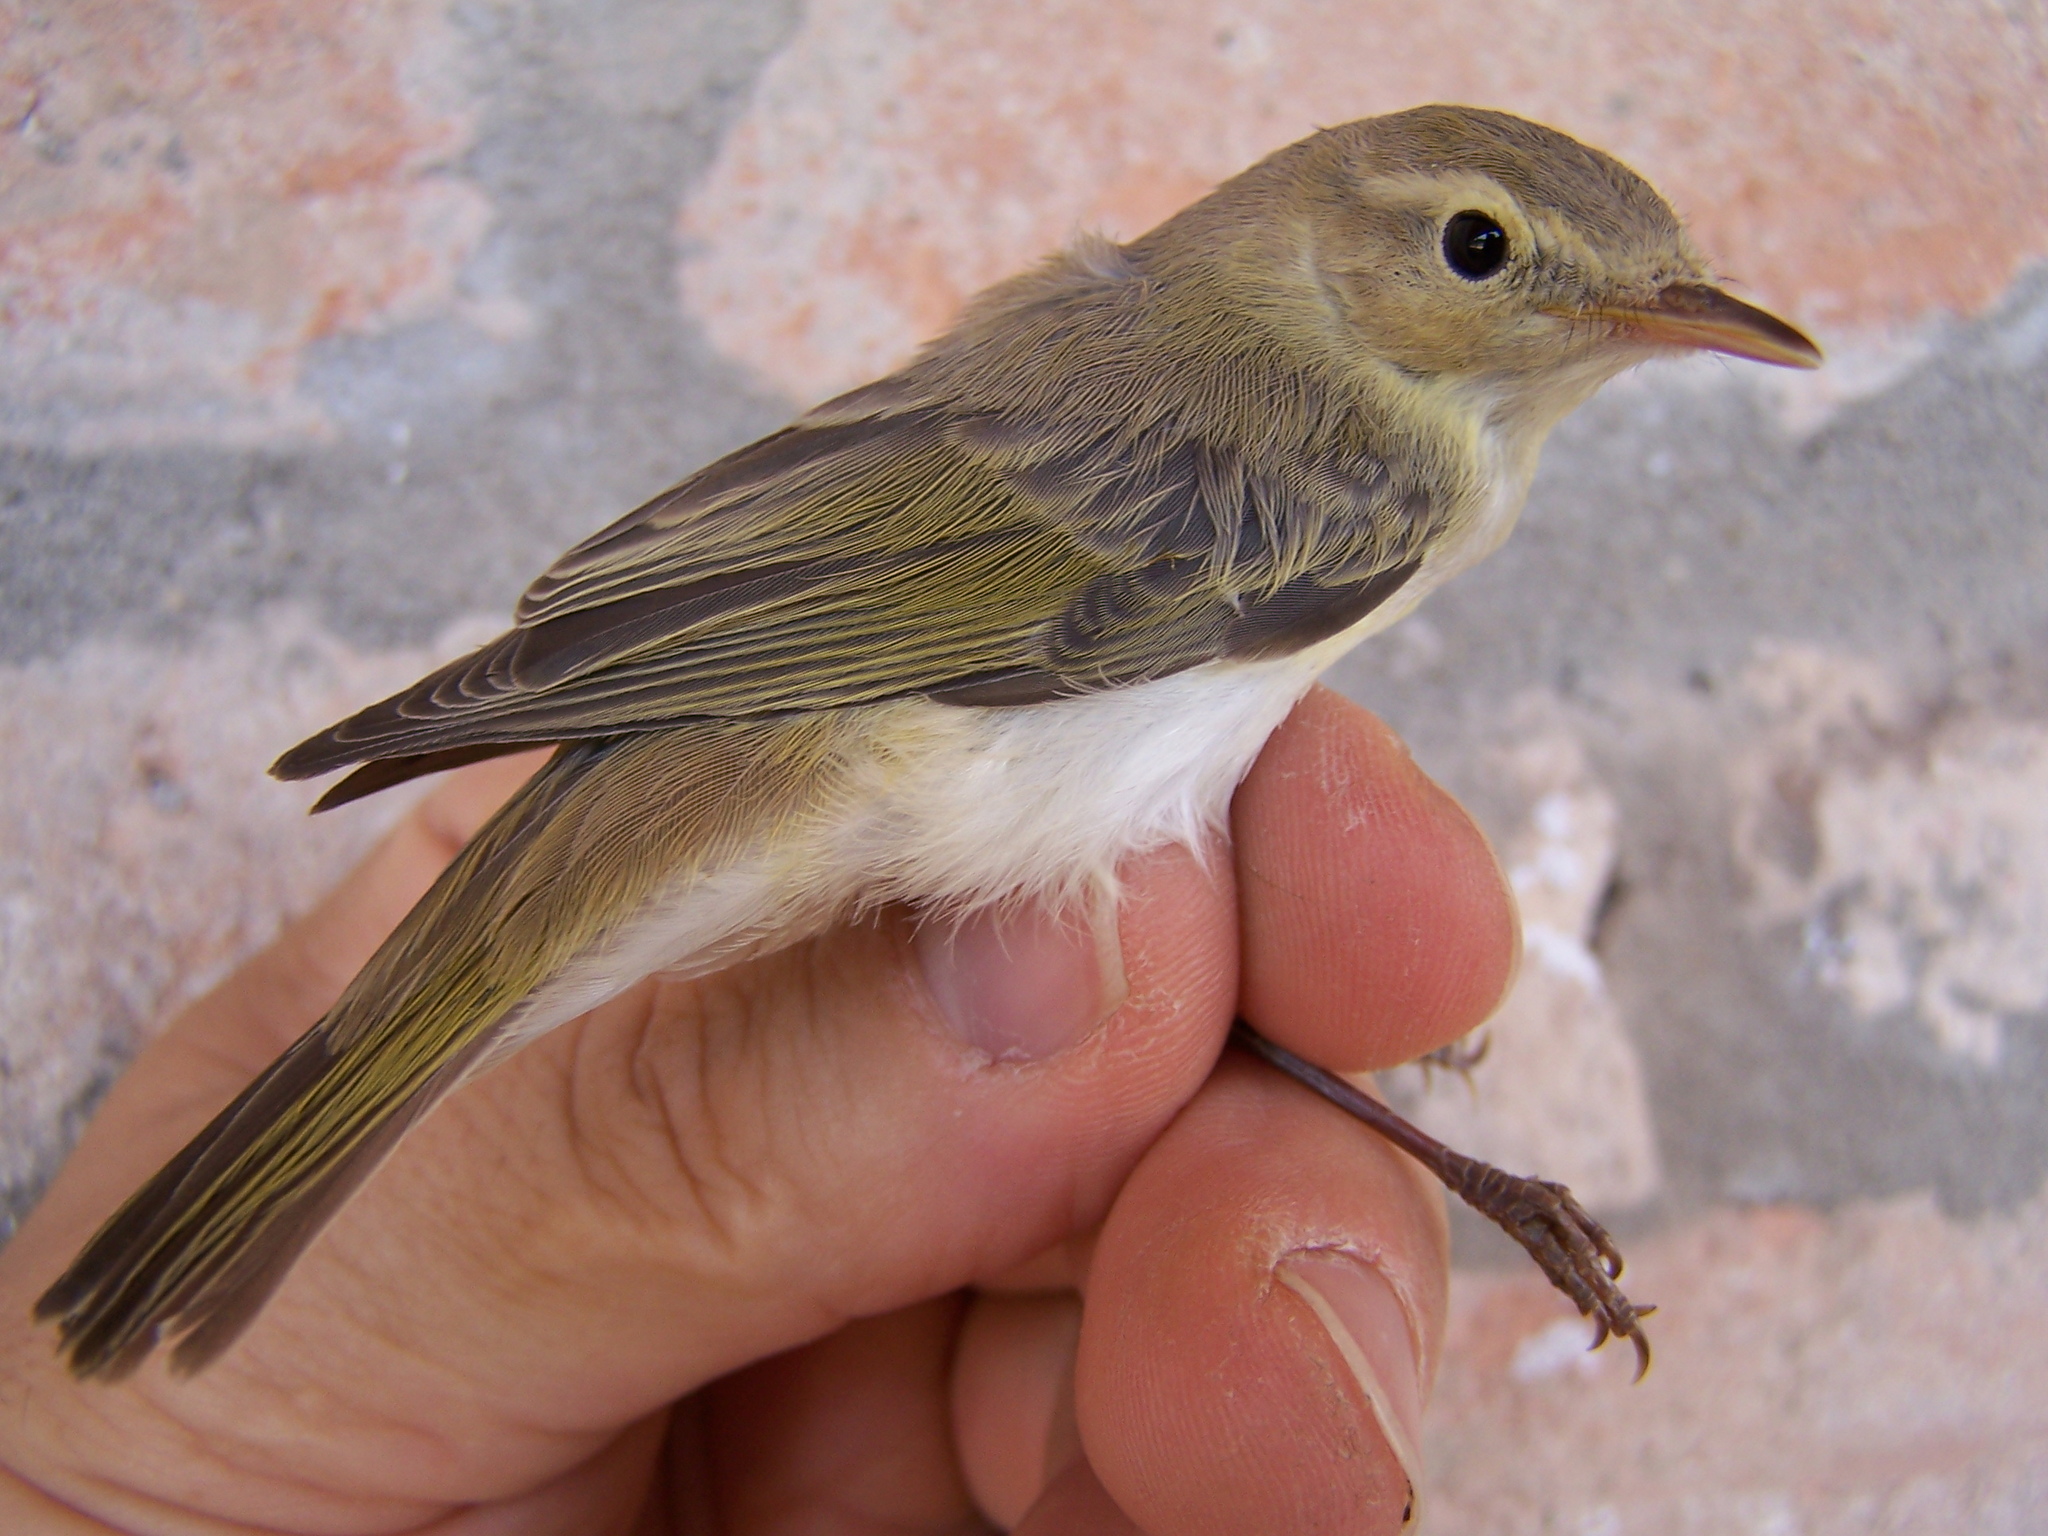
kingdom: Animalia
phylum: Chordata
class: Aves
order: Passeriformes
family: Phylloscopidae
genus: Phylloscopus
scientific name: Phylloscopus bonelli
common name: Western bonelli's warbler
